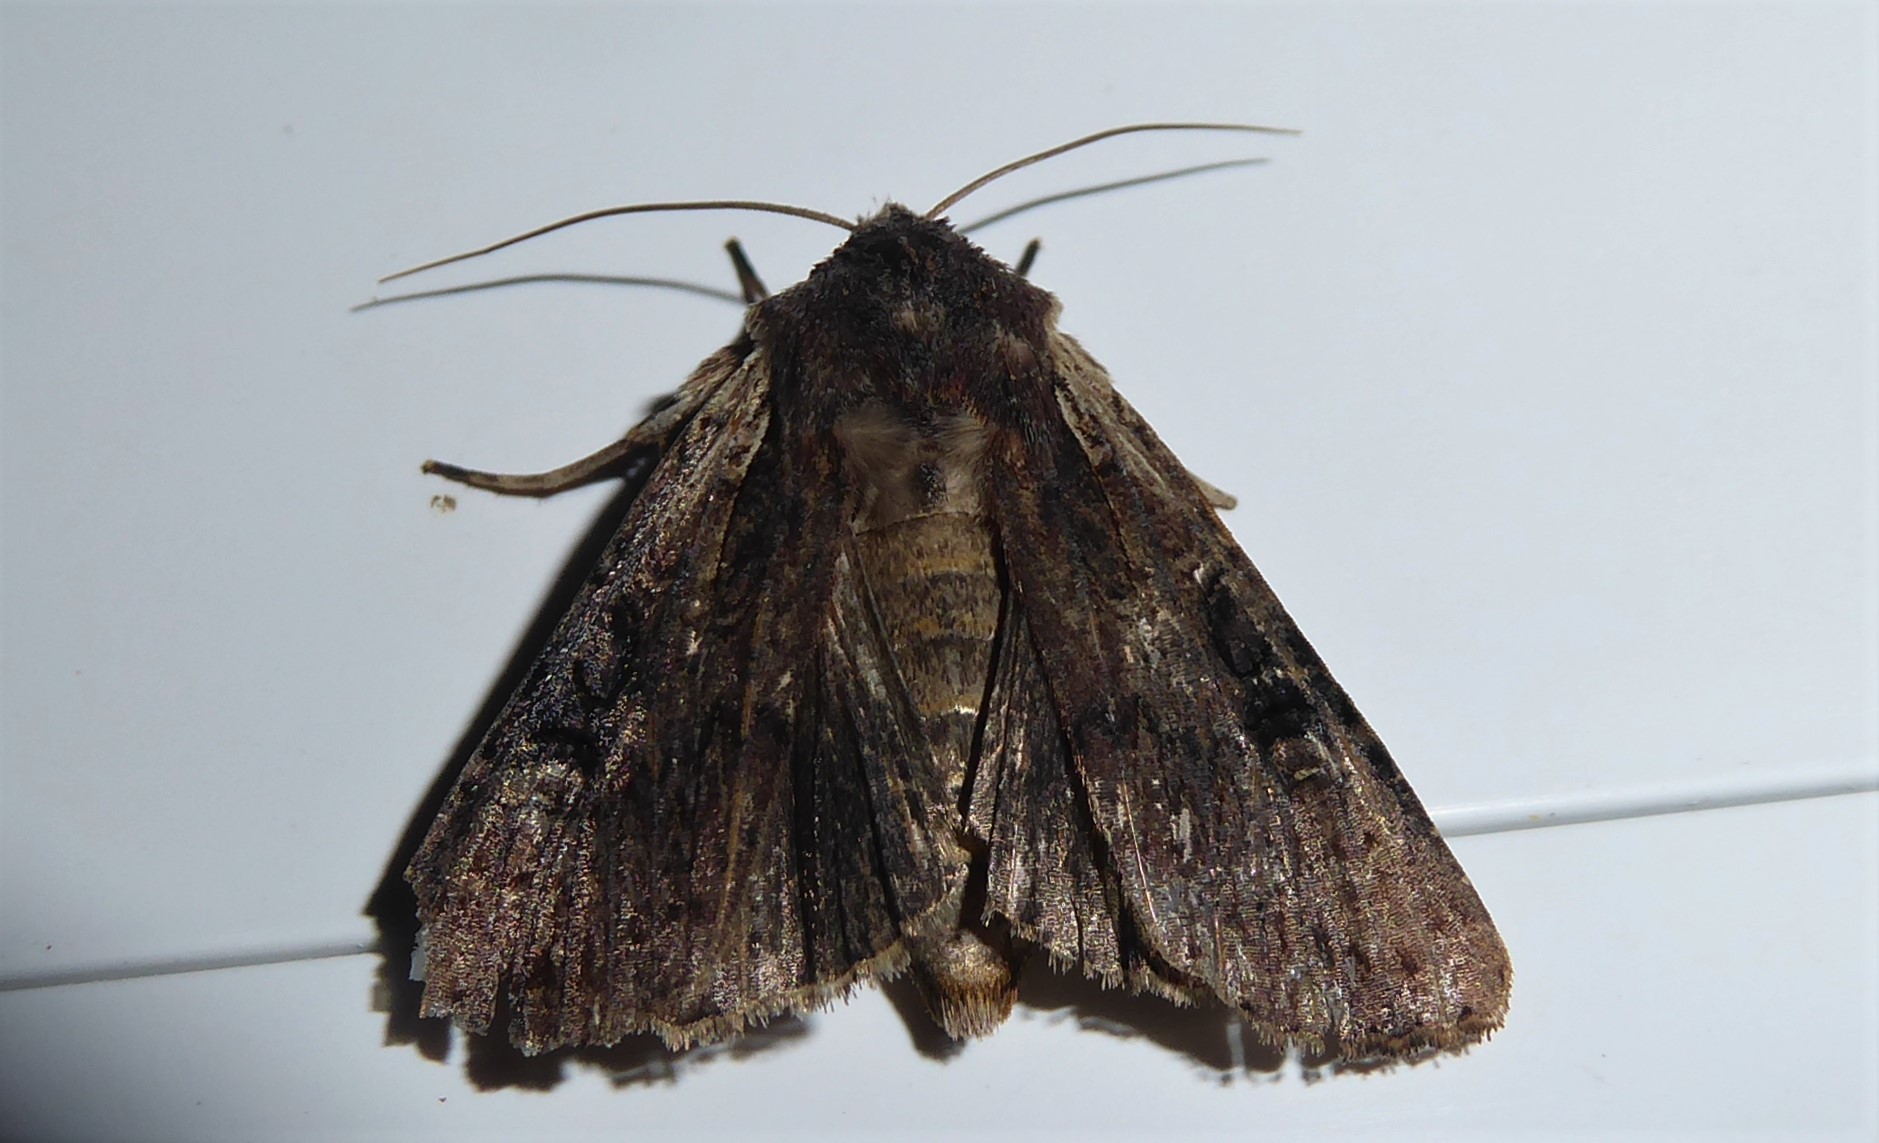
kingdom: Animalia
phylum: Arthropoda
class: Insecta
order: Lepidoptera
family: Noctuidae
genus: Ichneutica
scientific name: Ichneutica omoplaca
